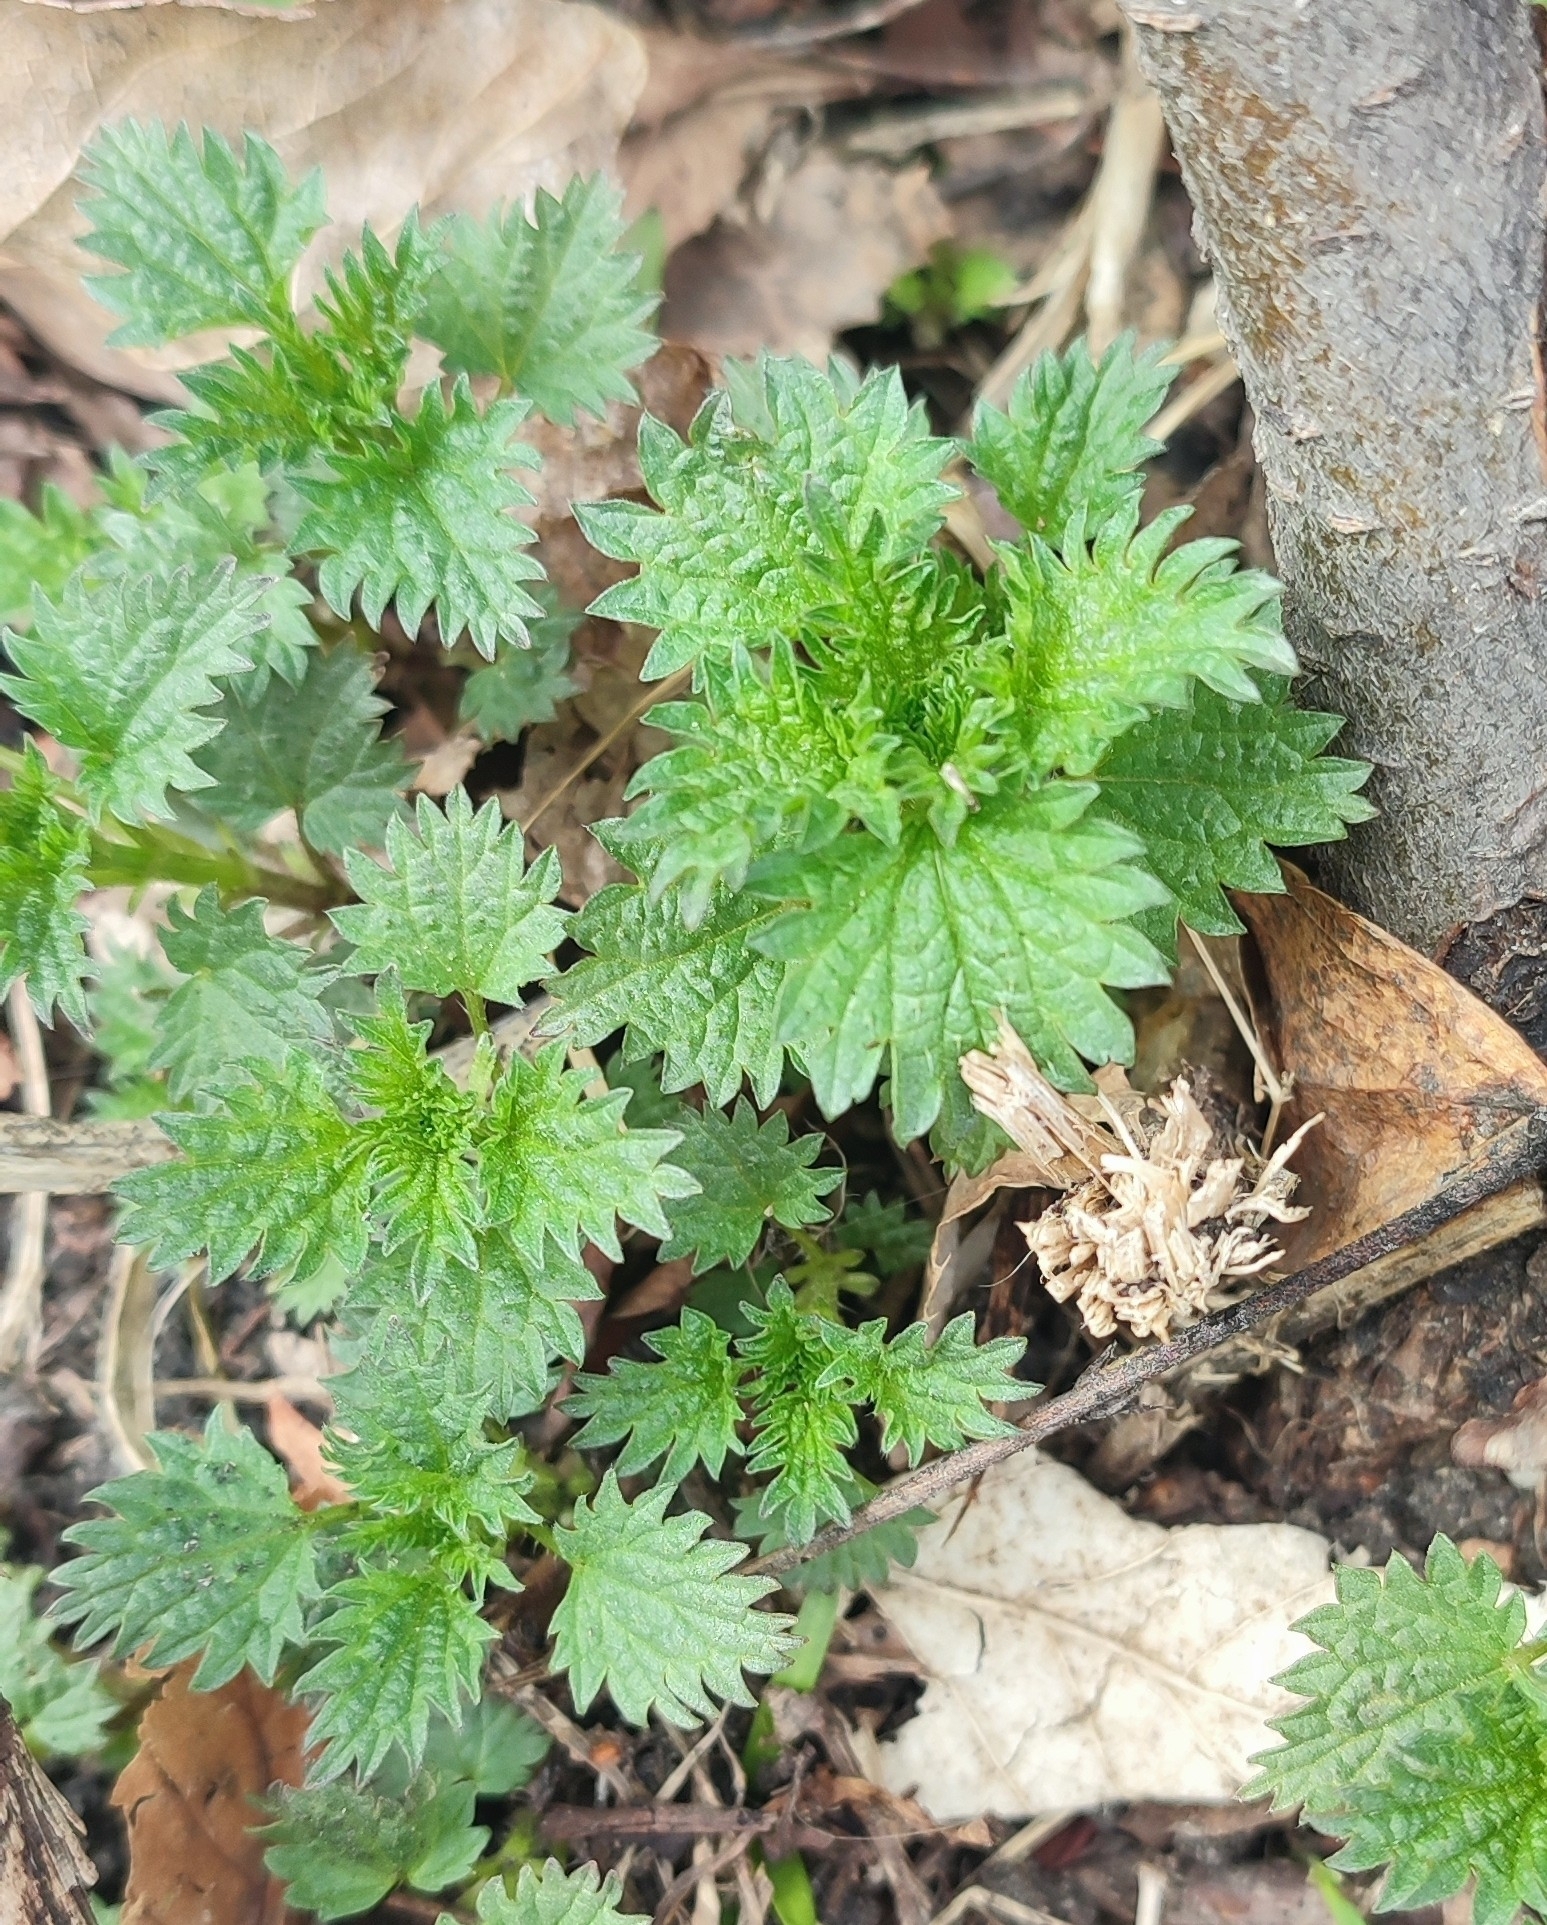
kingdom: Plantae
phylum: Tracheophyta
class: Magnoliopsida
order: Rosales
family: Urticaceae
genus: Urtica
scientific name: Urtica dioica
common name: Common nettle
